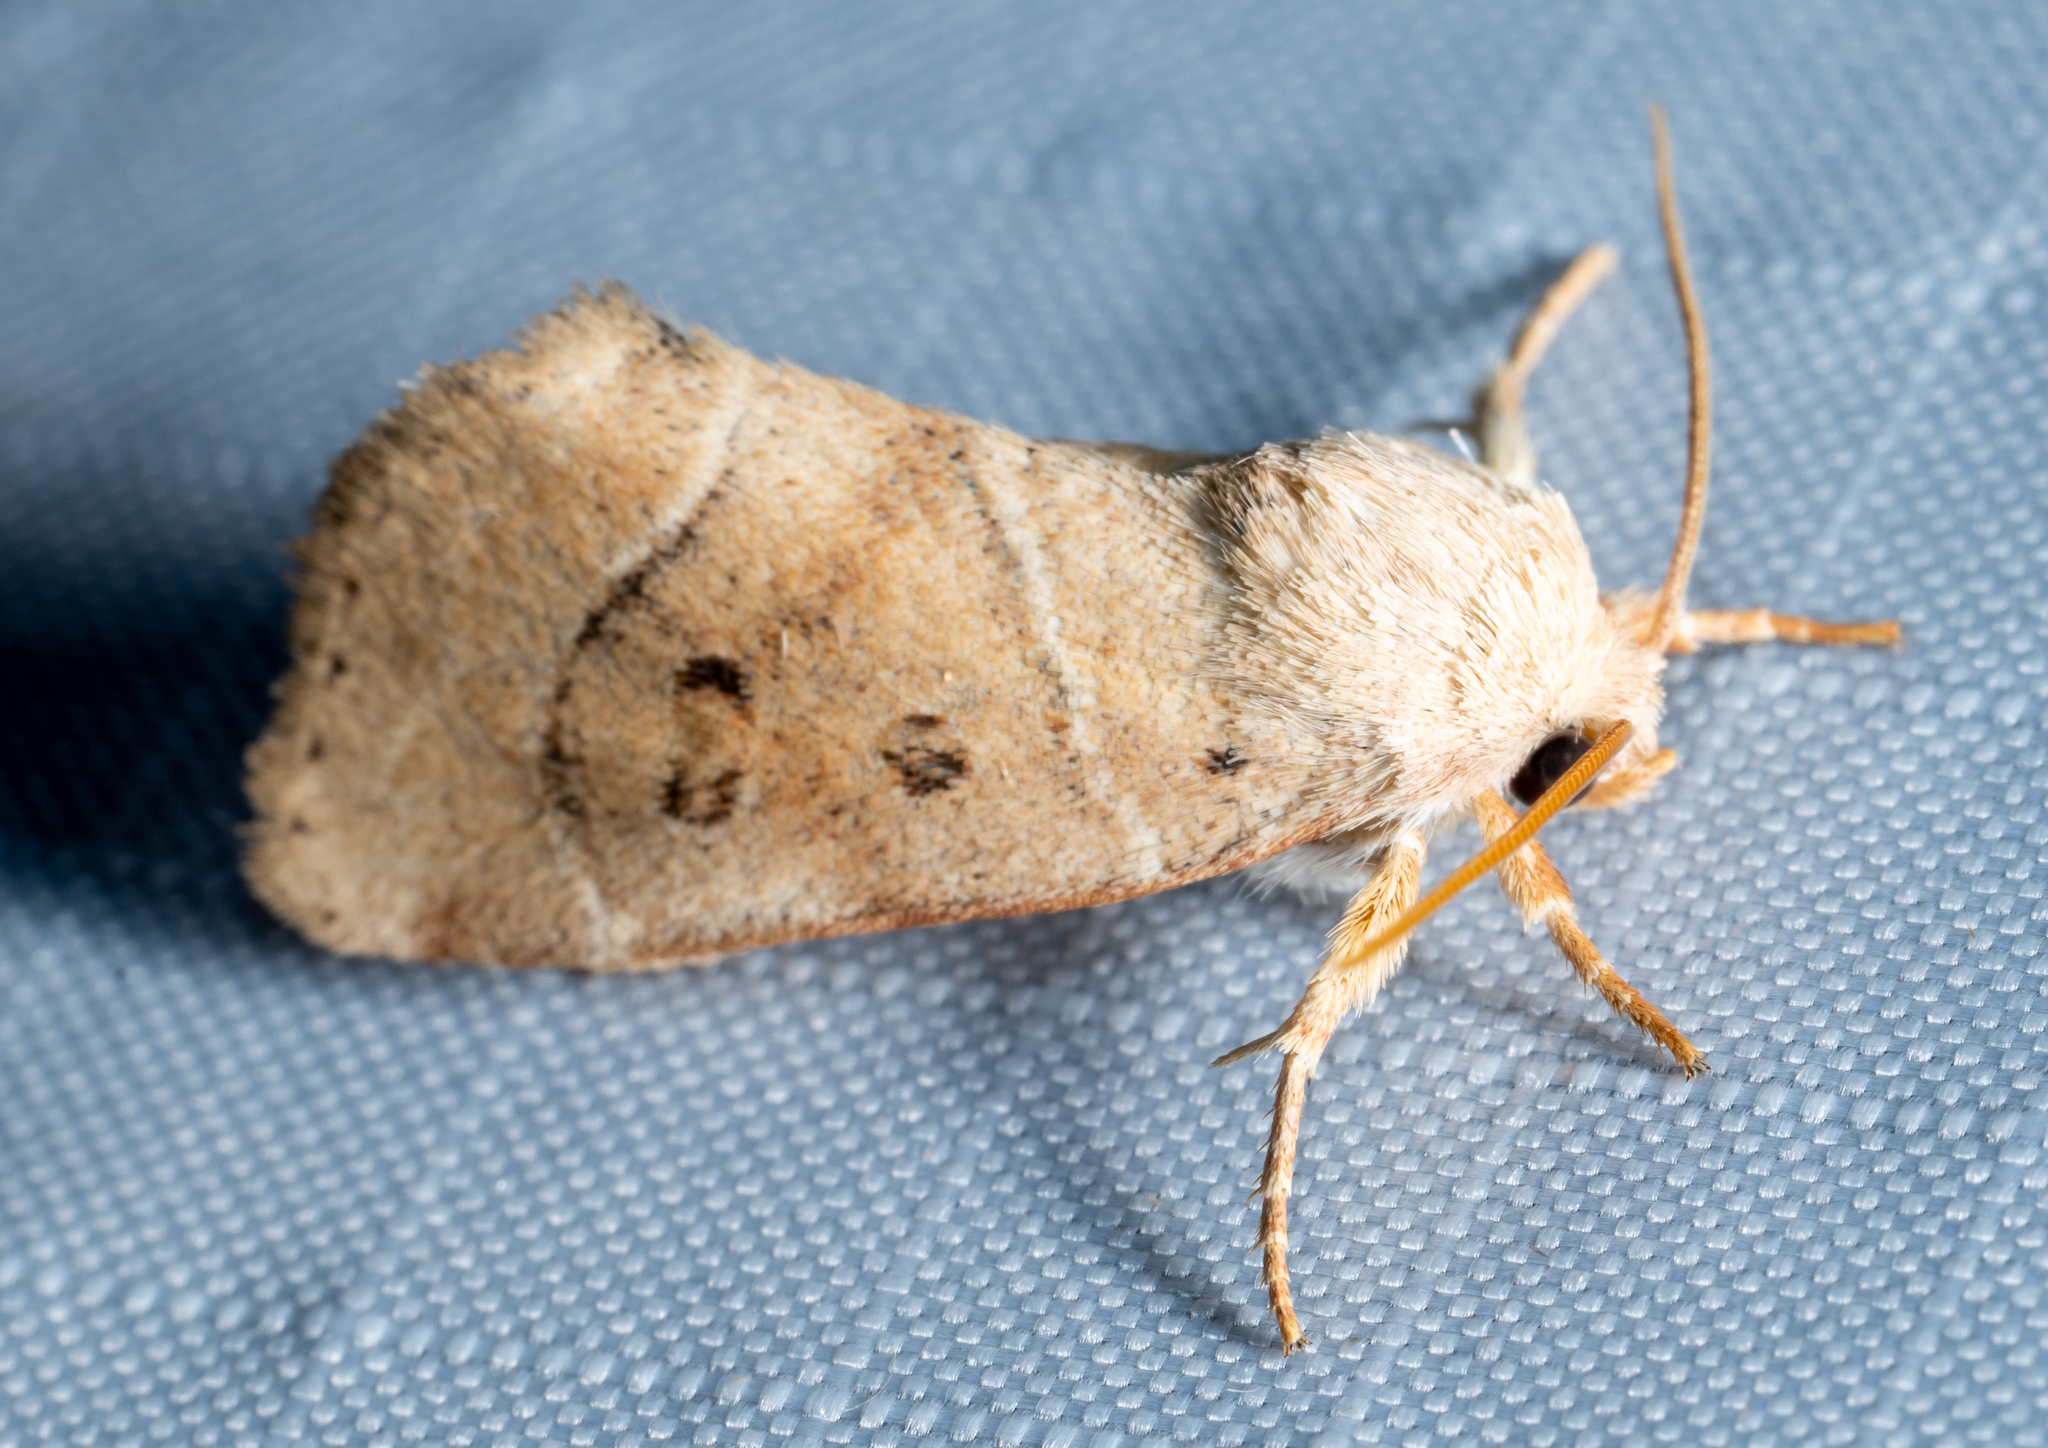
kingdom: Animalia
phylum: Arthropoda
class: Insecta
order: Lepidoptera
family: Noctuidae
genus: Cosmia
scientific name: Cosmia calami
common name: American dun-bar moth
